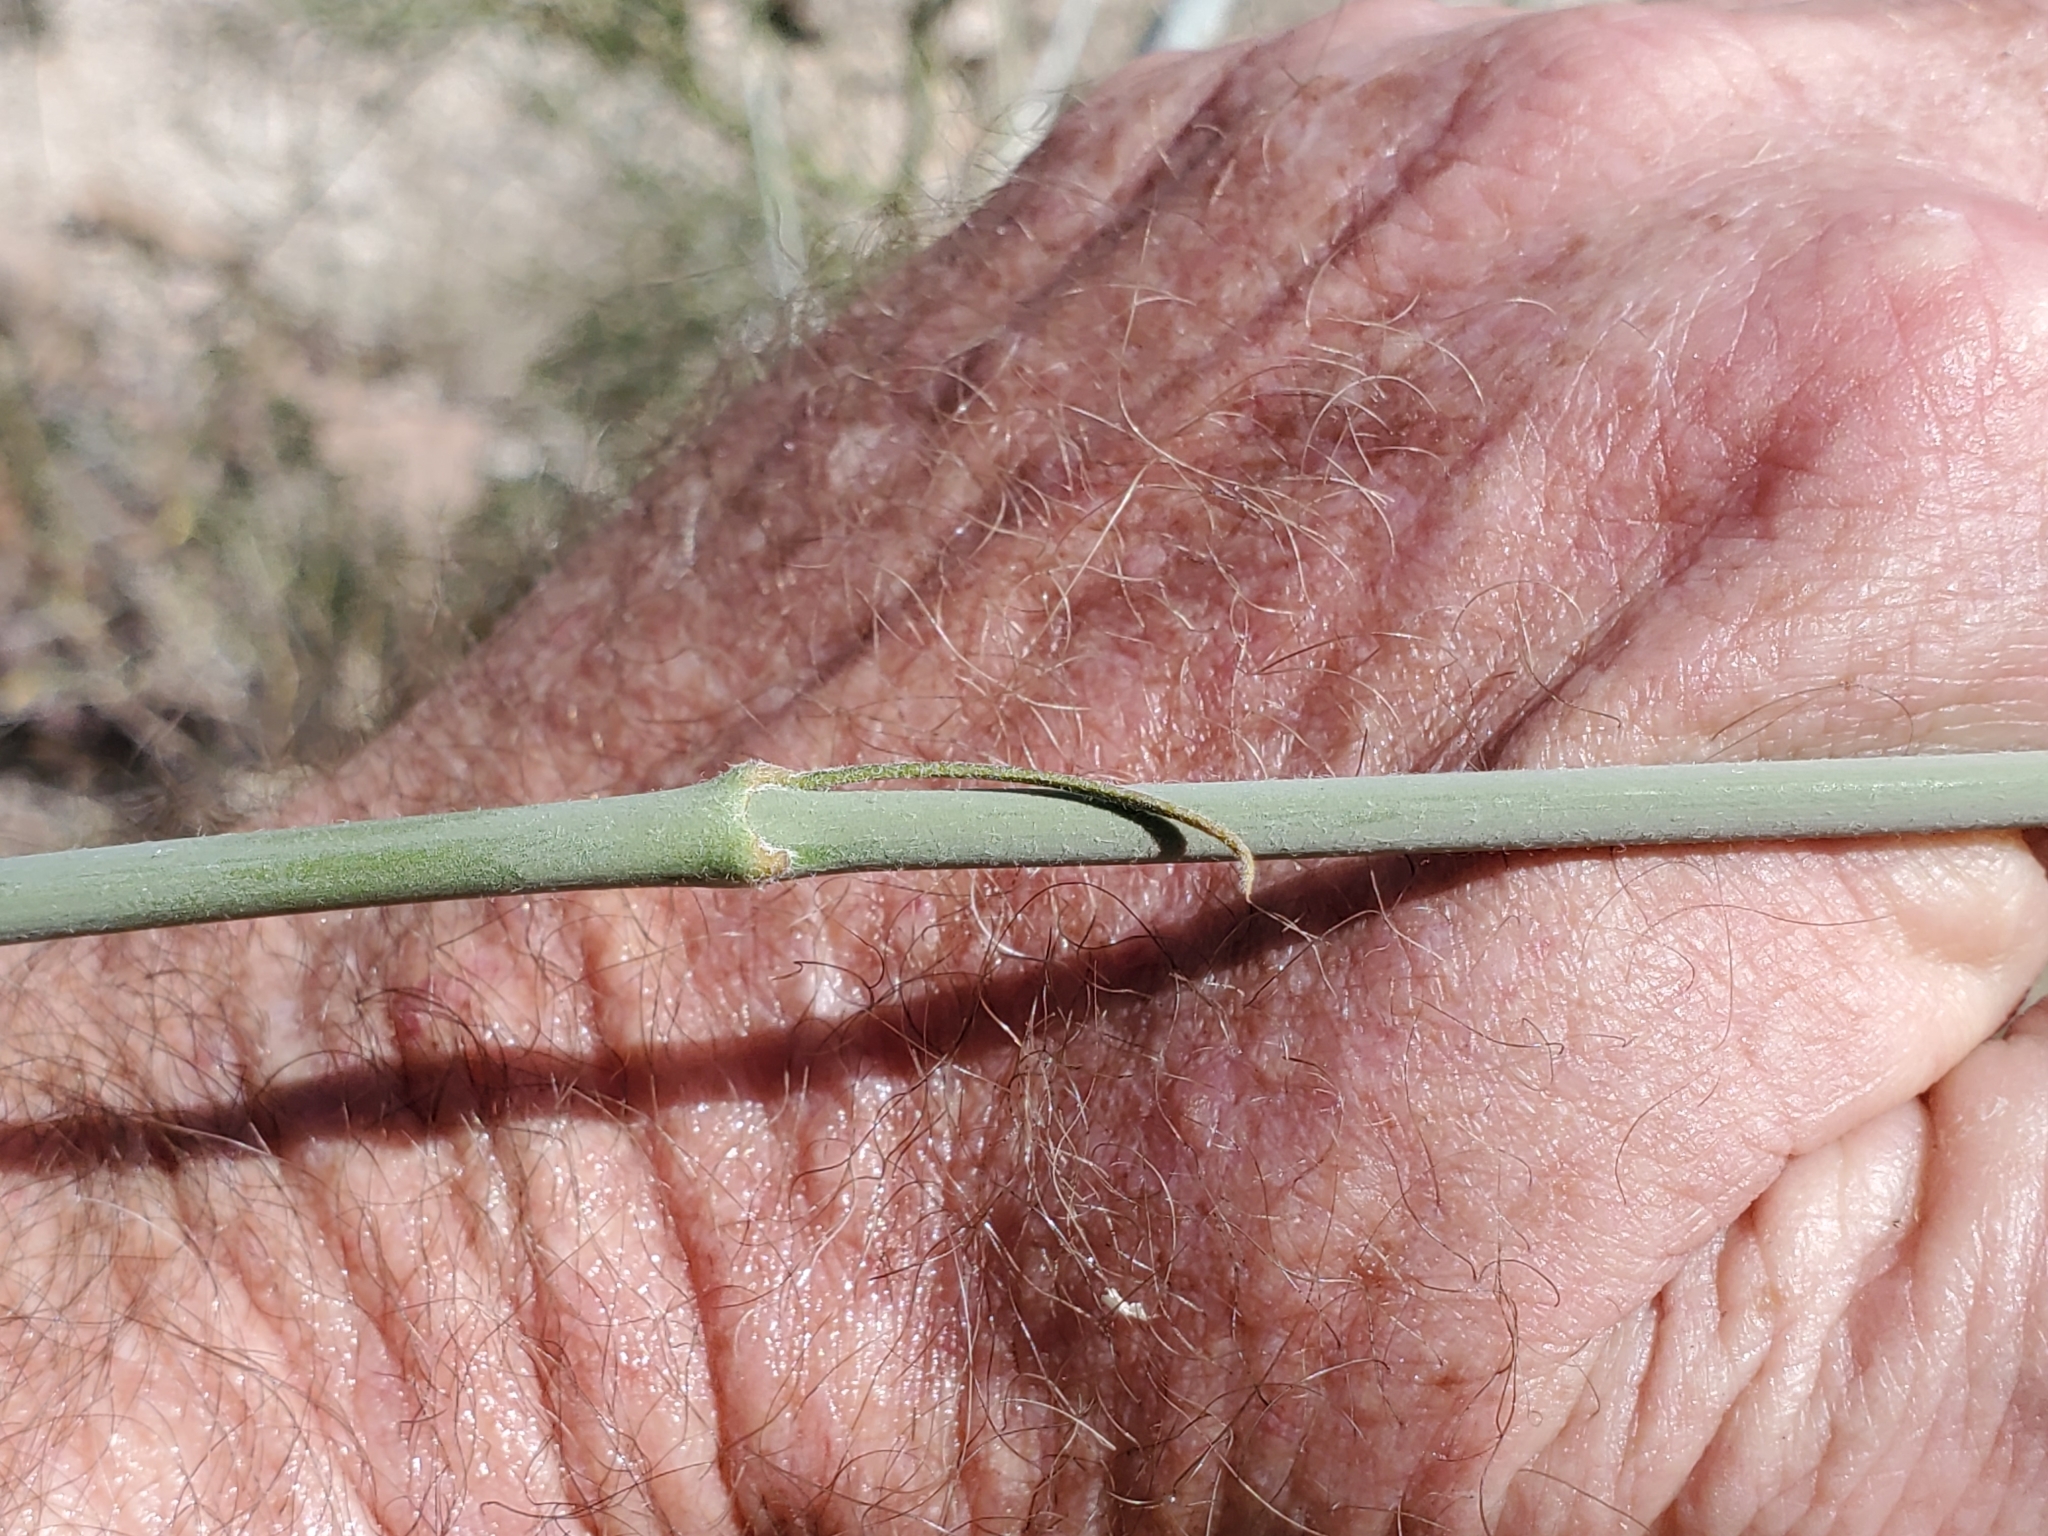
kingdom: Plantae
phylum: Tracheophyta
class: Magnoliopsida
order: Gentianales
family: Apocynaceae
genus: Asclepias
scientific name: Asclepias albicans
